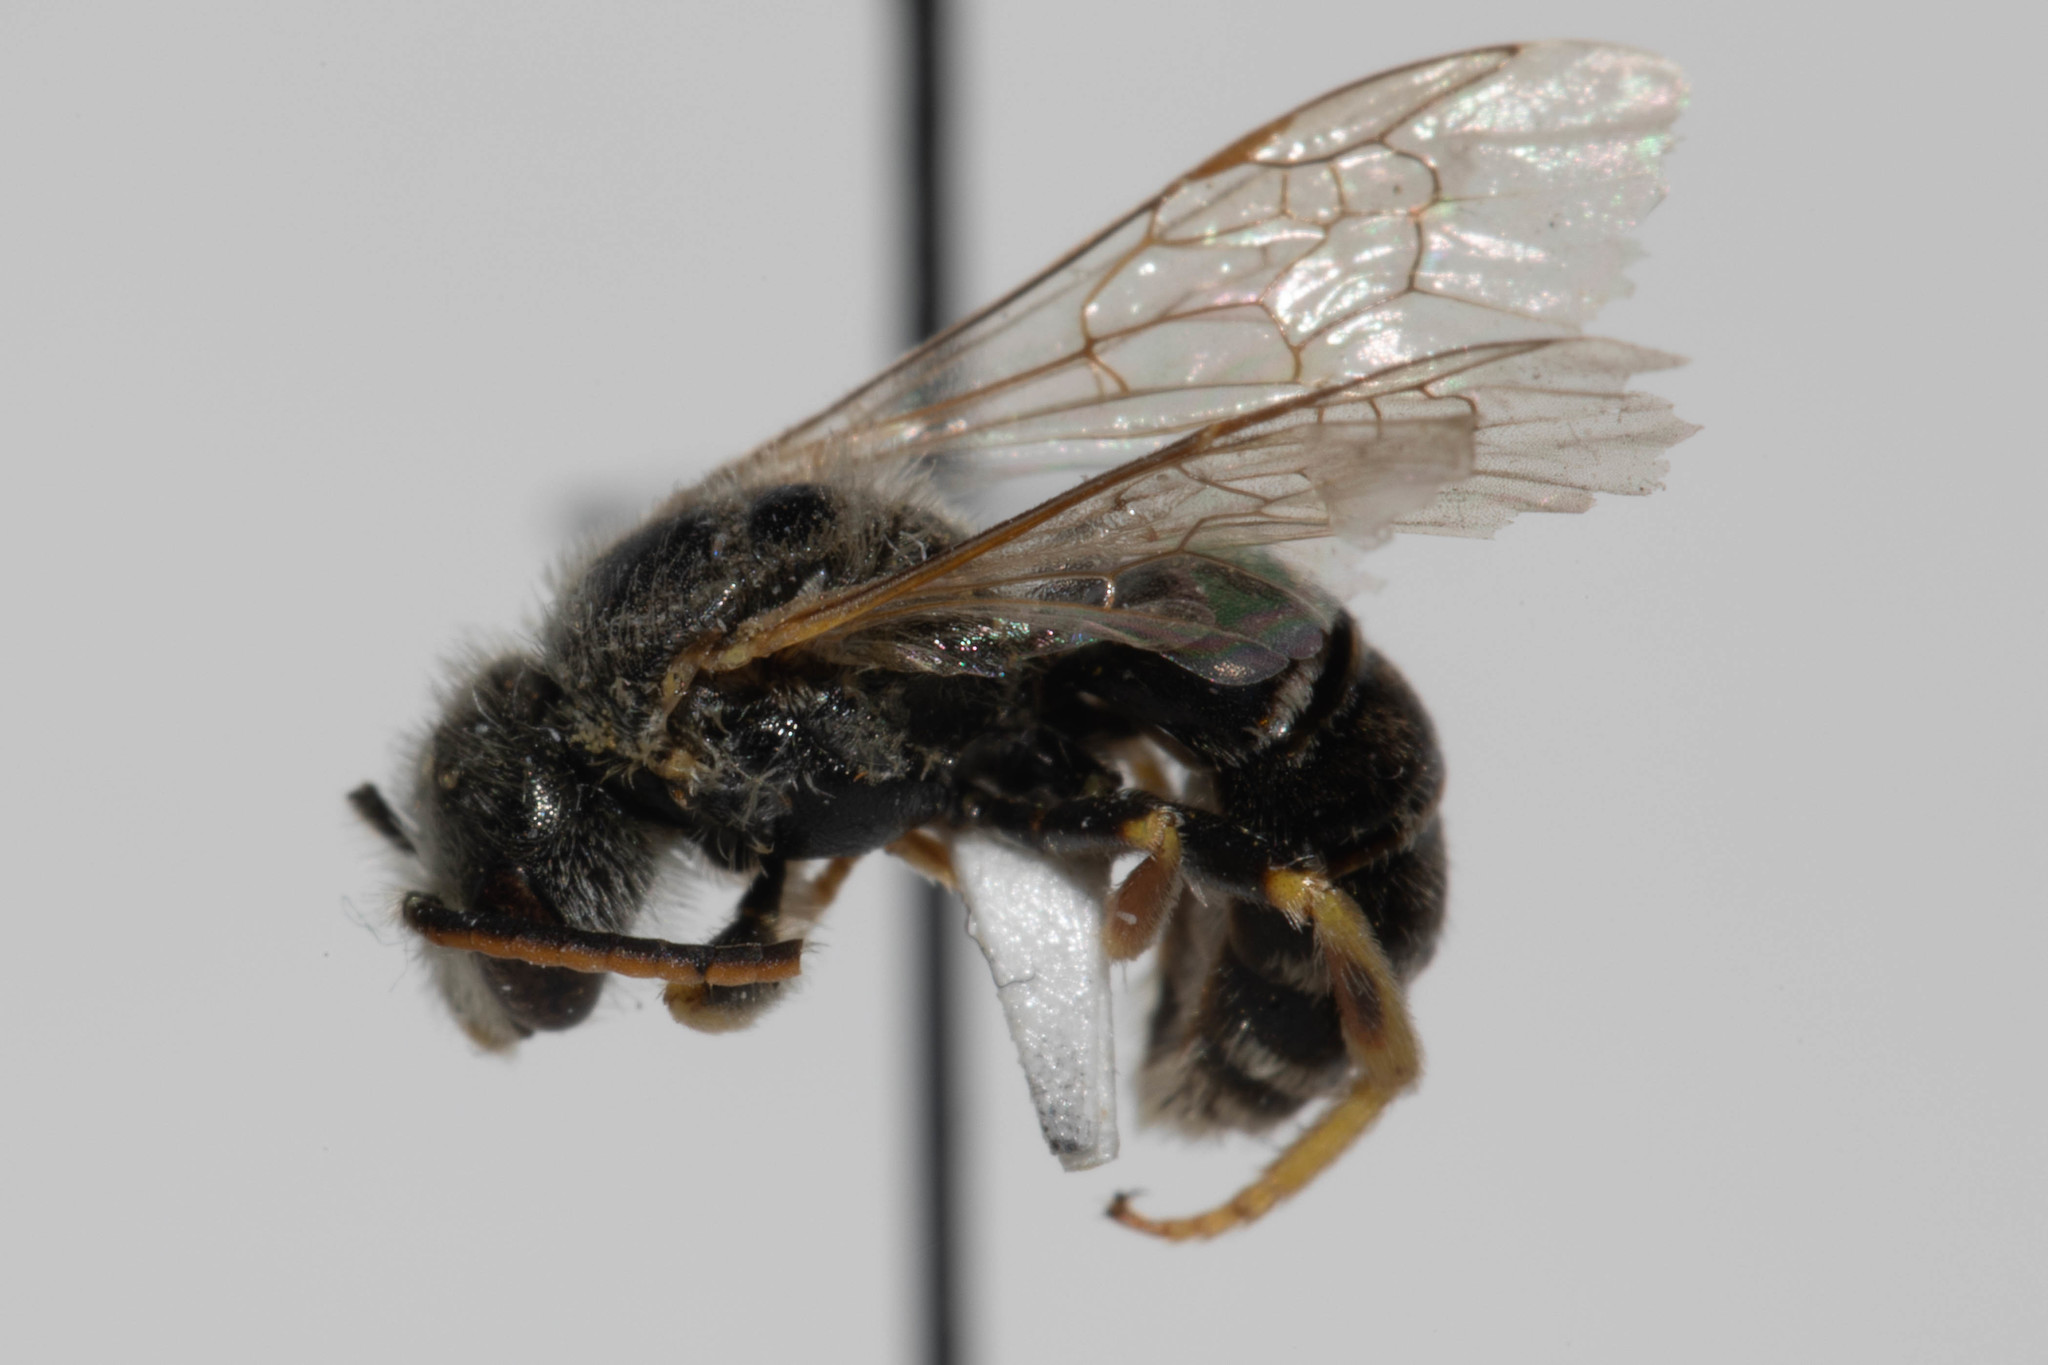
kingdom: Animalia
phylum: Arthropoda
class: Insecta
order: Hymenoptera
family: Halictidae
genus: Halictus
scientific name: Halictus ligatus
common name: Ligated furrow bee
